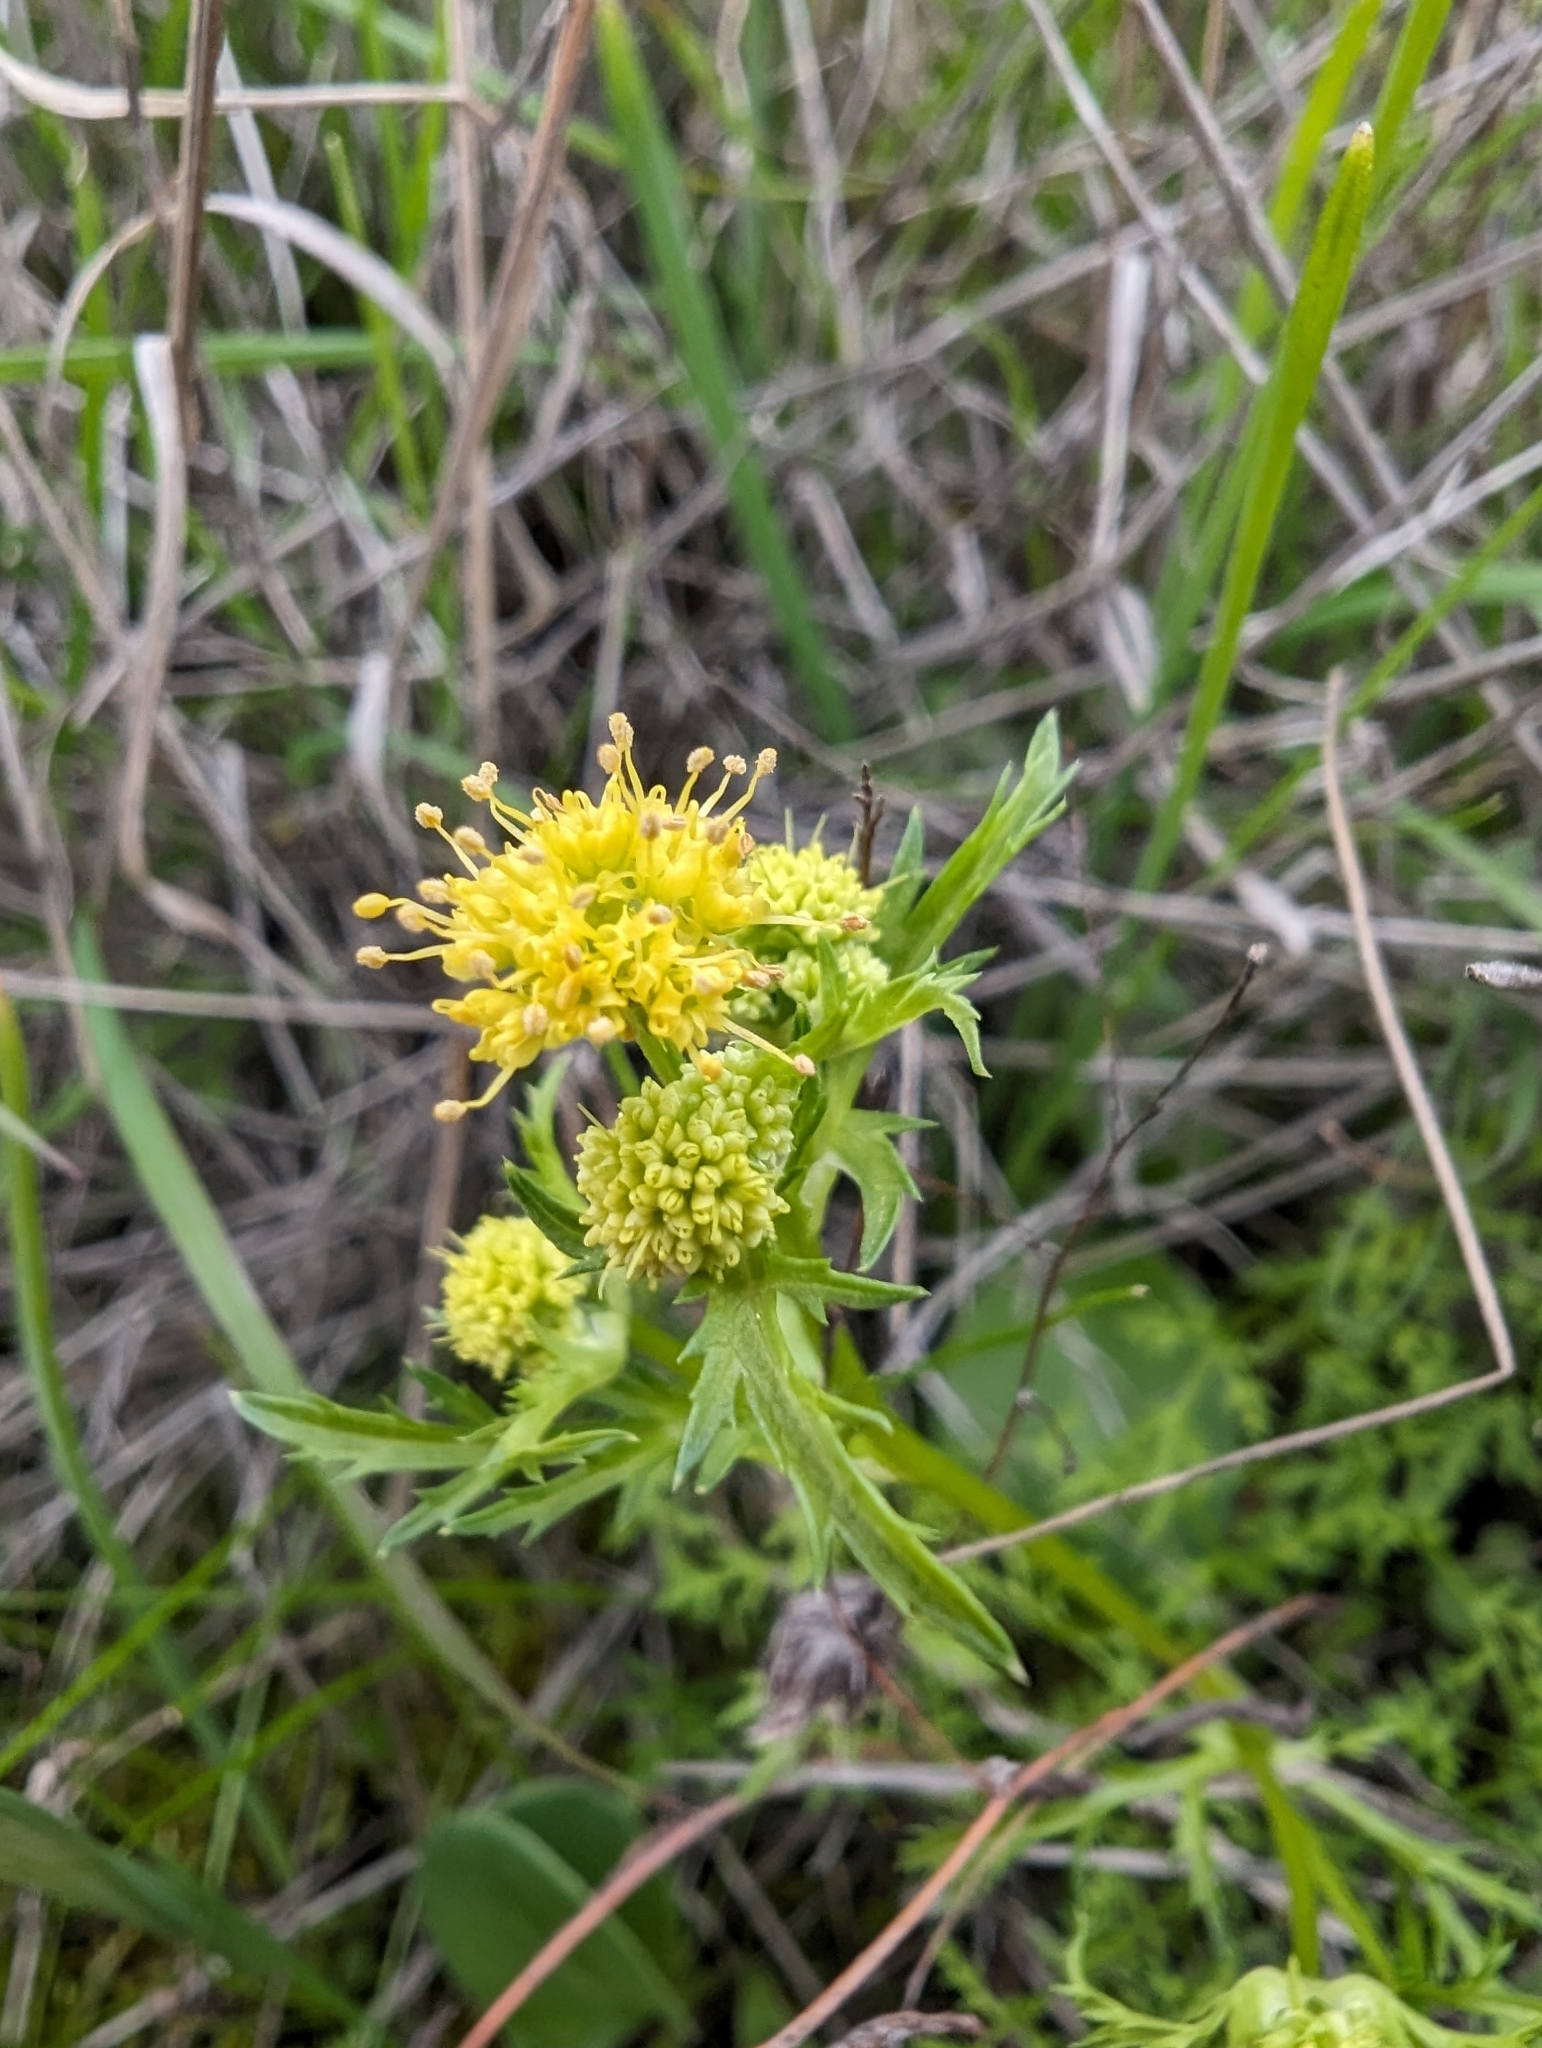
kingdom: Plantae
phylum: Tracheophyta
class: Magnoliopsida
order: Apiales
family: Apiaceae
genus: Sanicula
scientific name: Sanicula tuberosa
